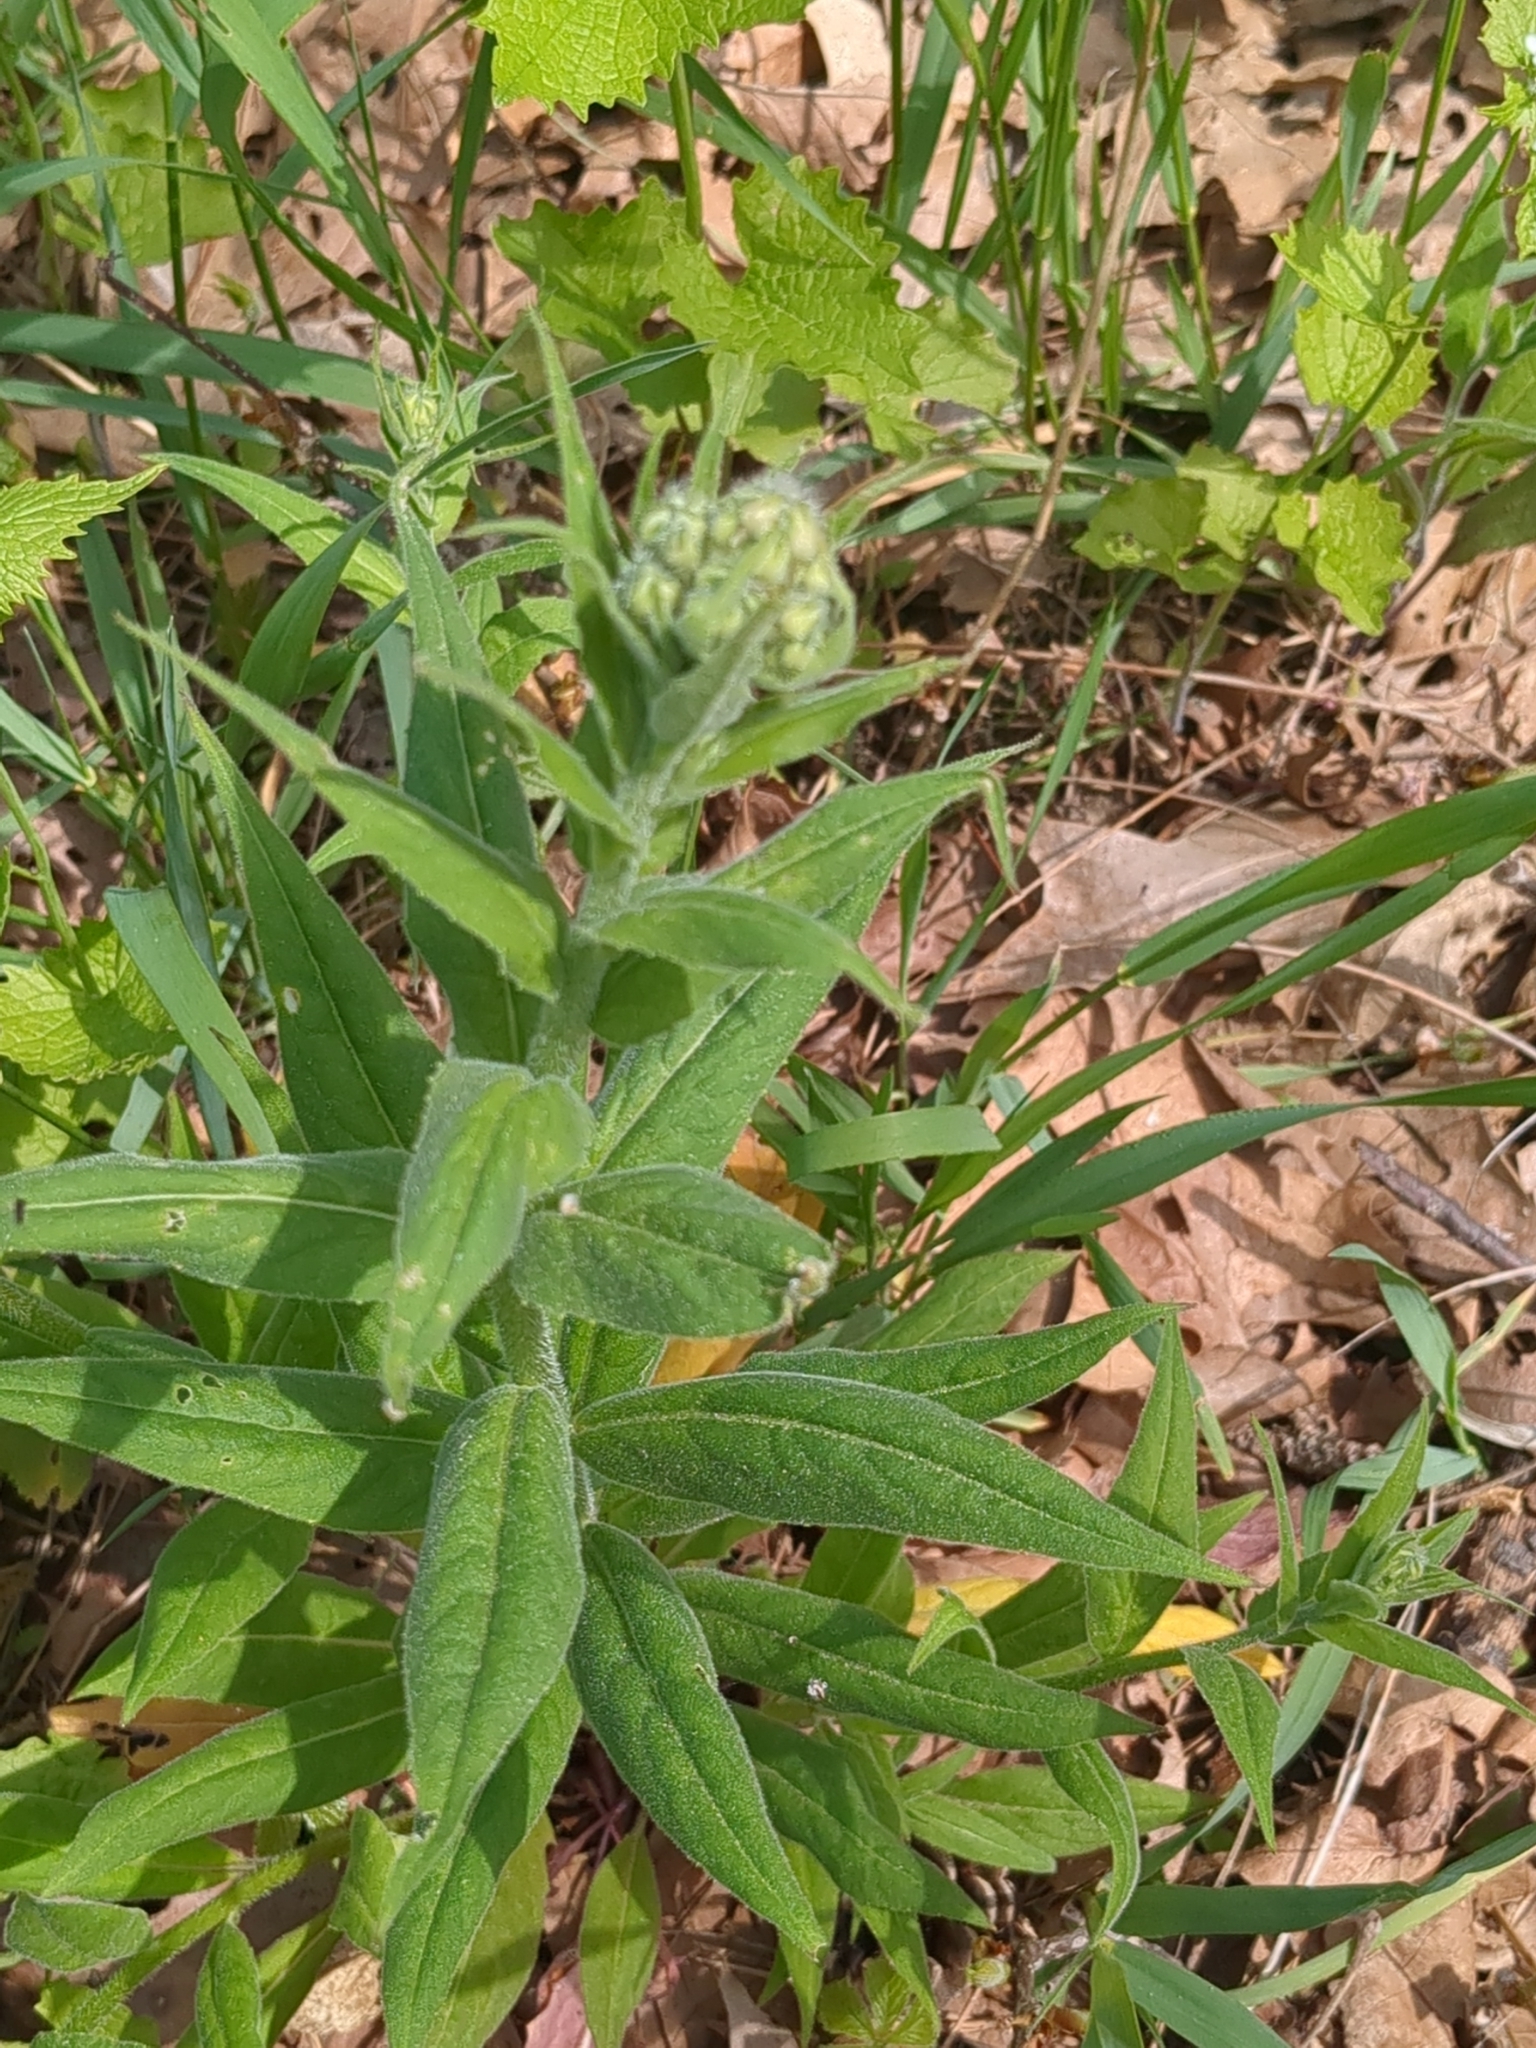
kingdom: Plantae
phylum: Tracheophyta
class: Magnoliopsida
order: Brassicales
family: Brassicaceae
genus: Hesperis
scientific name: Hesperis matronalis
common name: Dame's-violet
